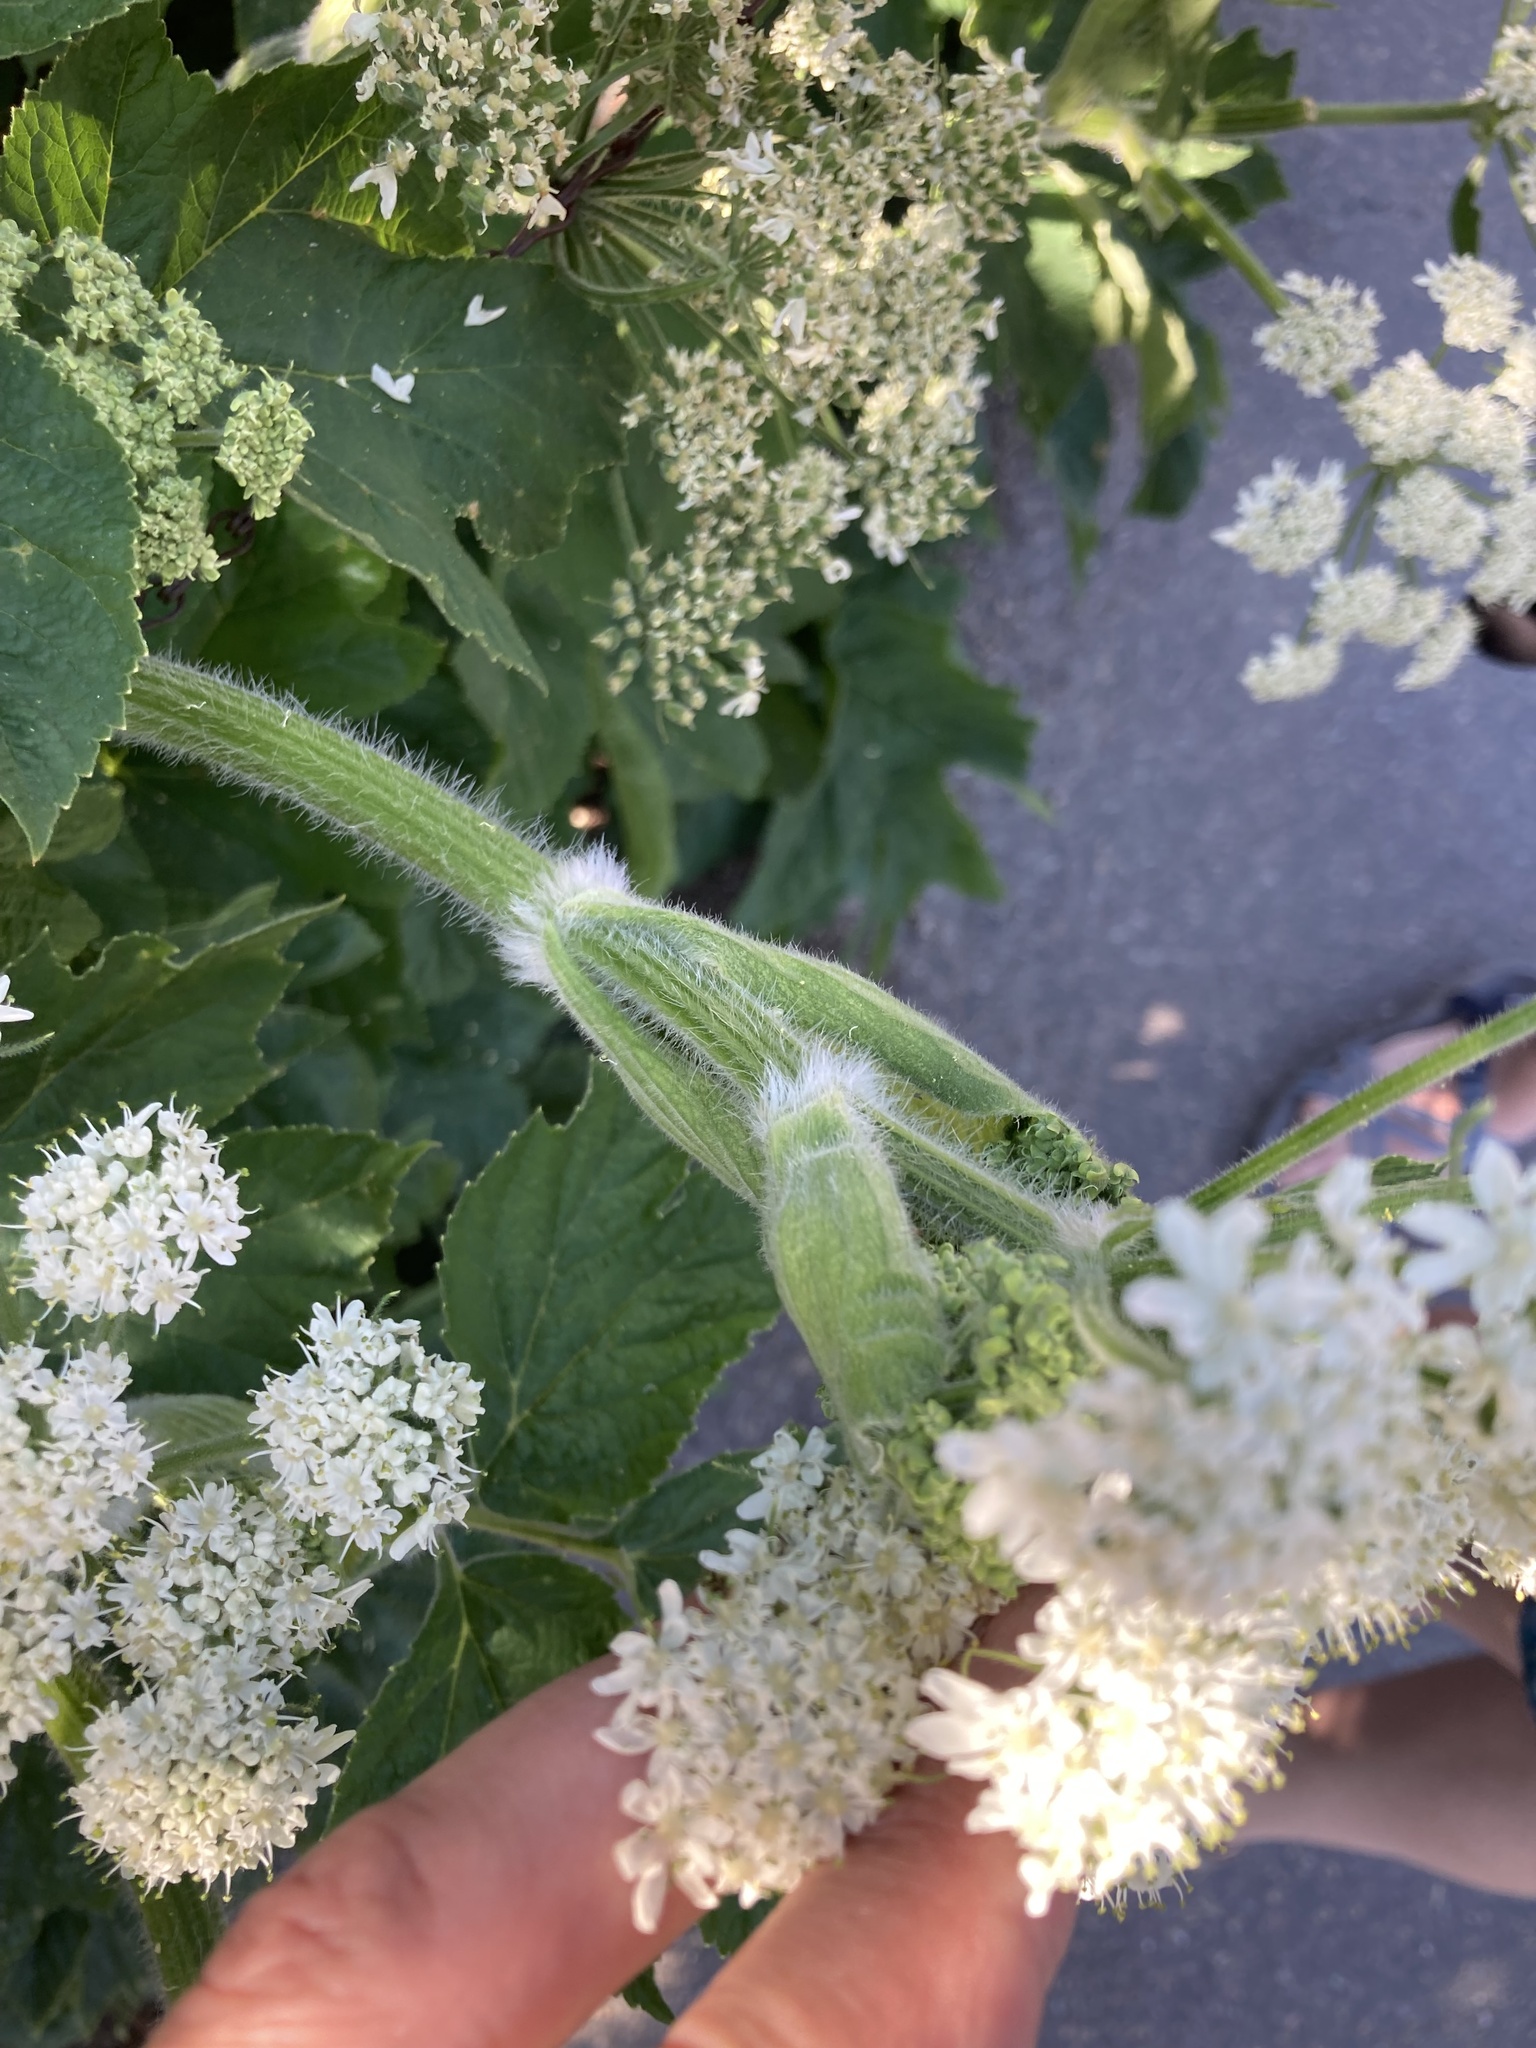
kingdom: Plantae
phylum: Tracheophyta
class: Magnoliopsida
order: Apiales
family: Apiaceae
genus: Heracleum
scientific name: Heracleum maximum
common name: American cow parsnip
